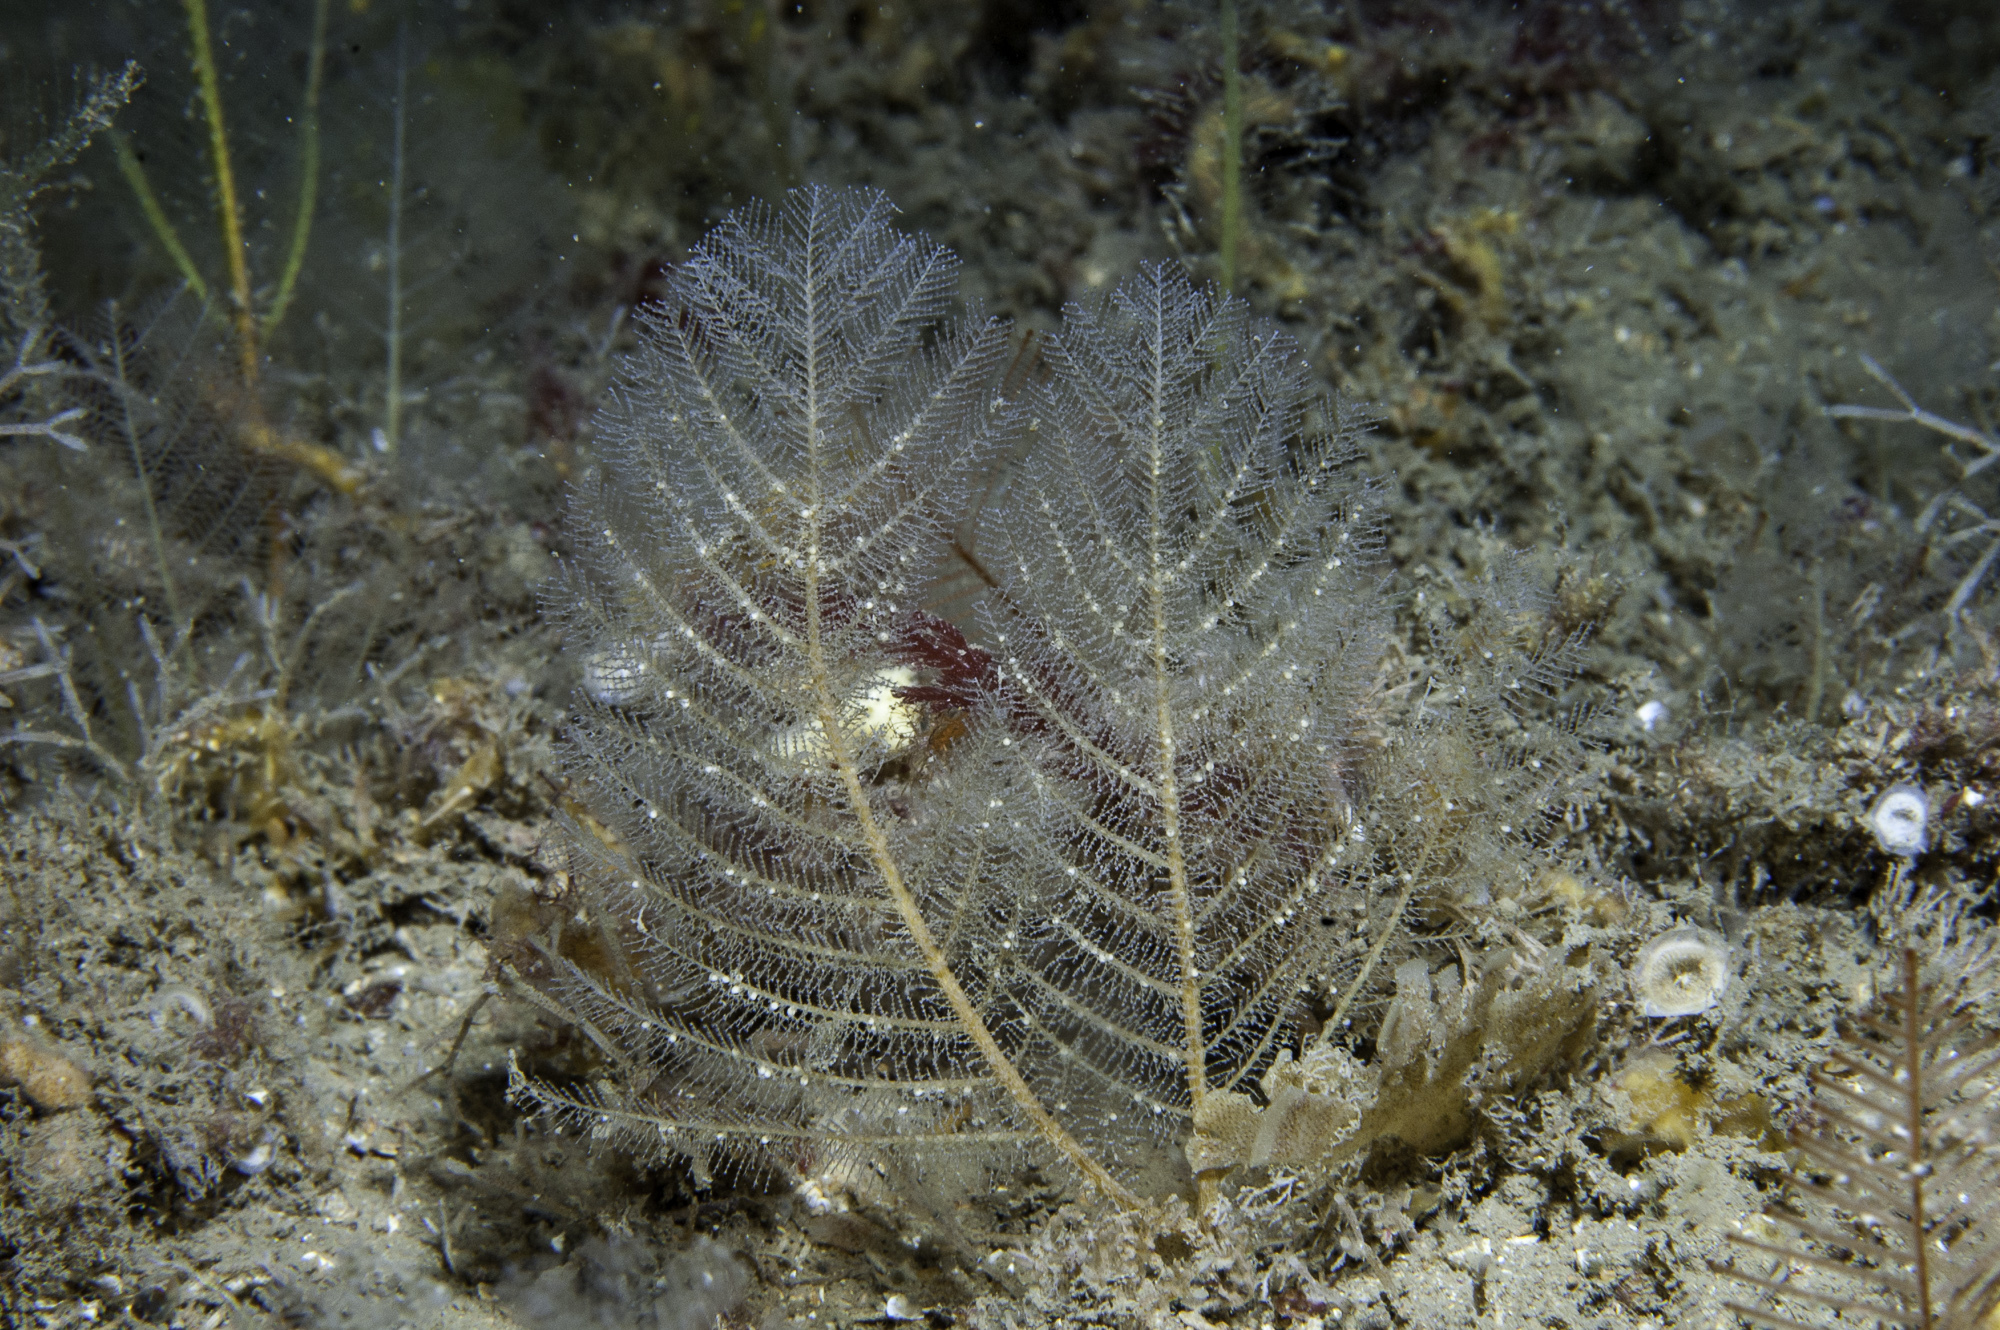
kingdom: Animalia
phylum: Cnidaria
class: Hydrozoa
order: Leptothecata
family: Halopterididae
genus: Polyplumaria
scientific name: Polyplumaria flabellata
